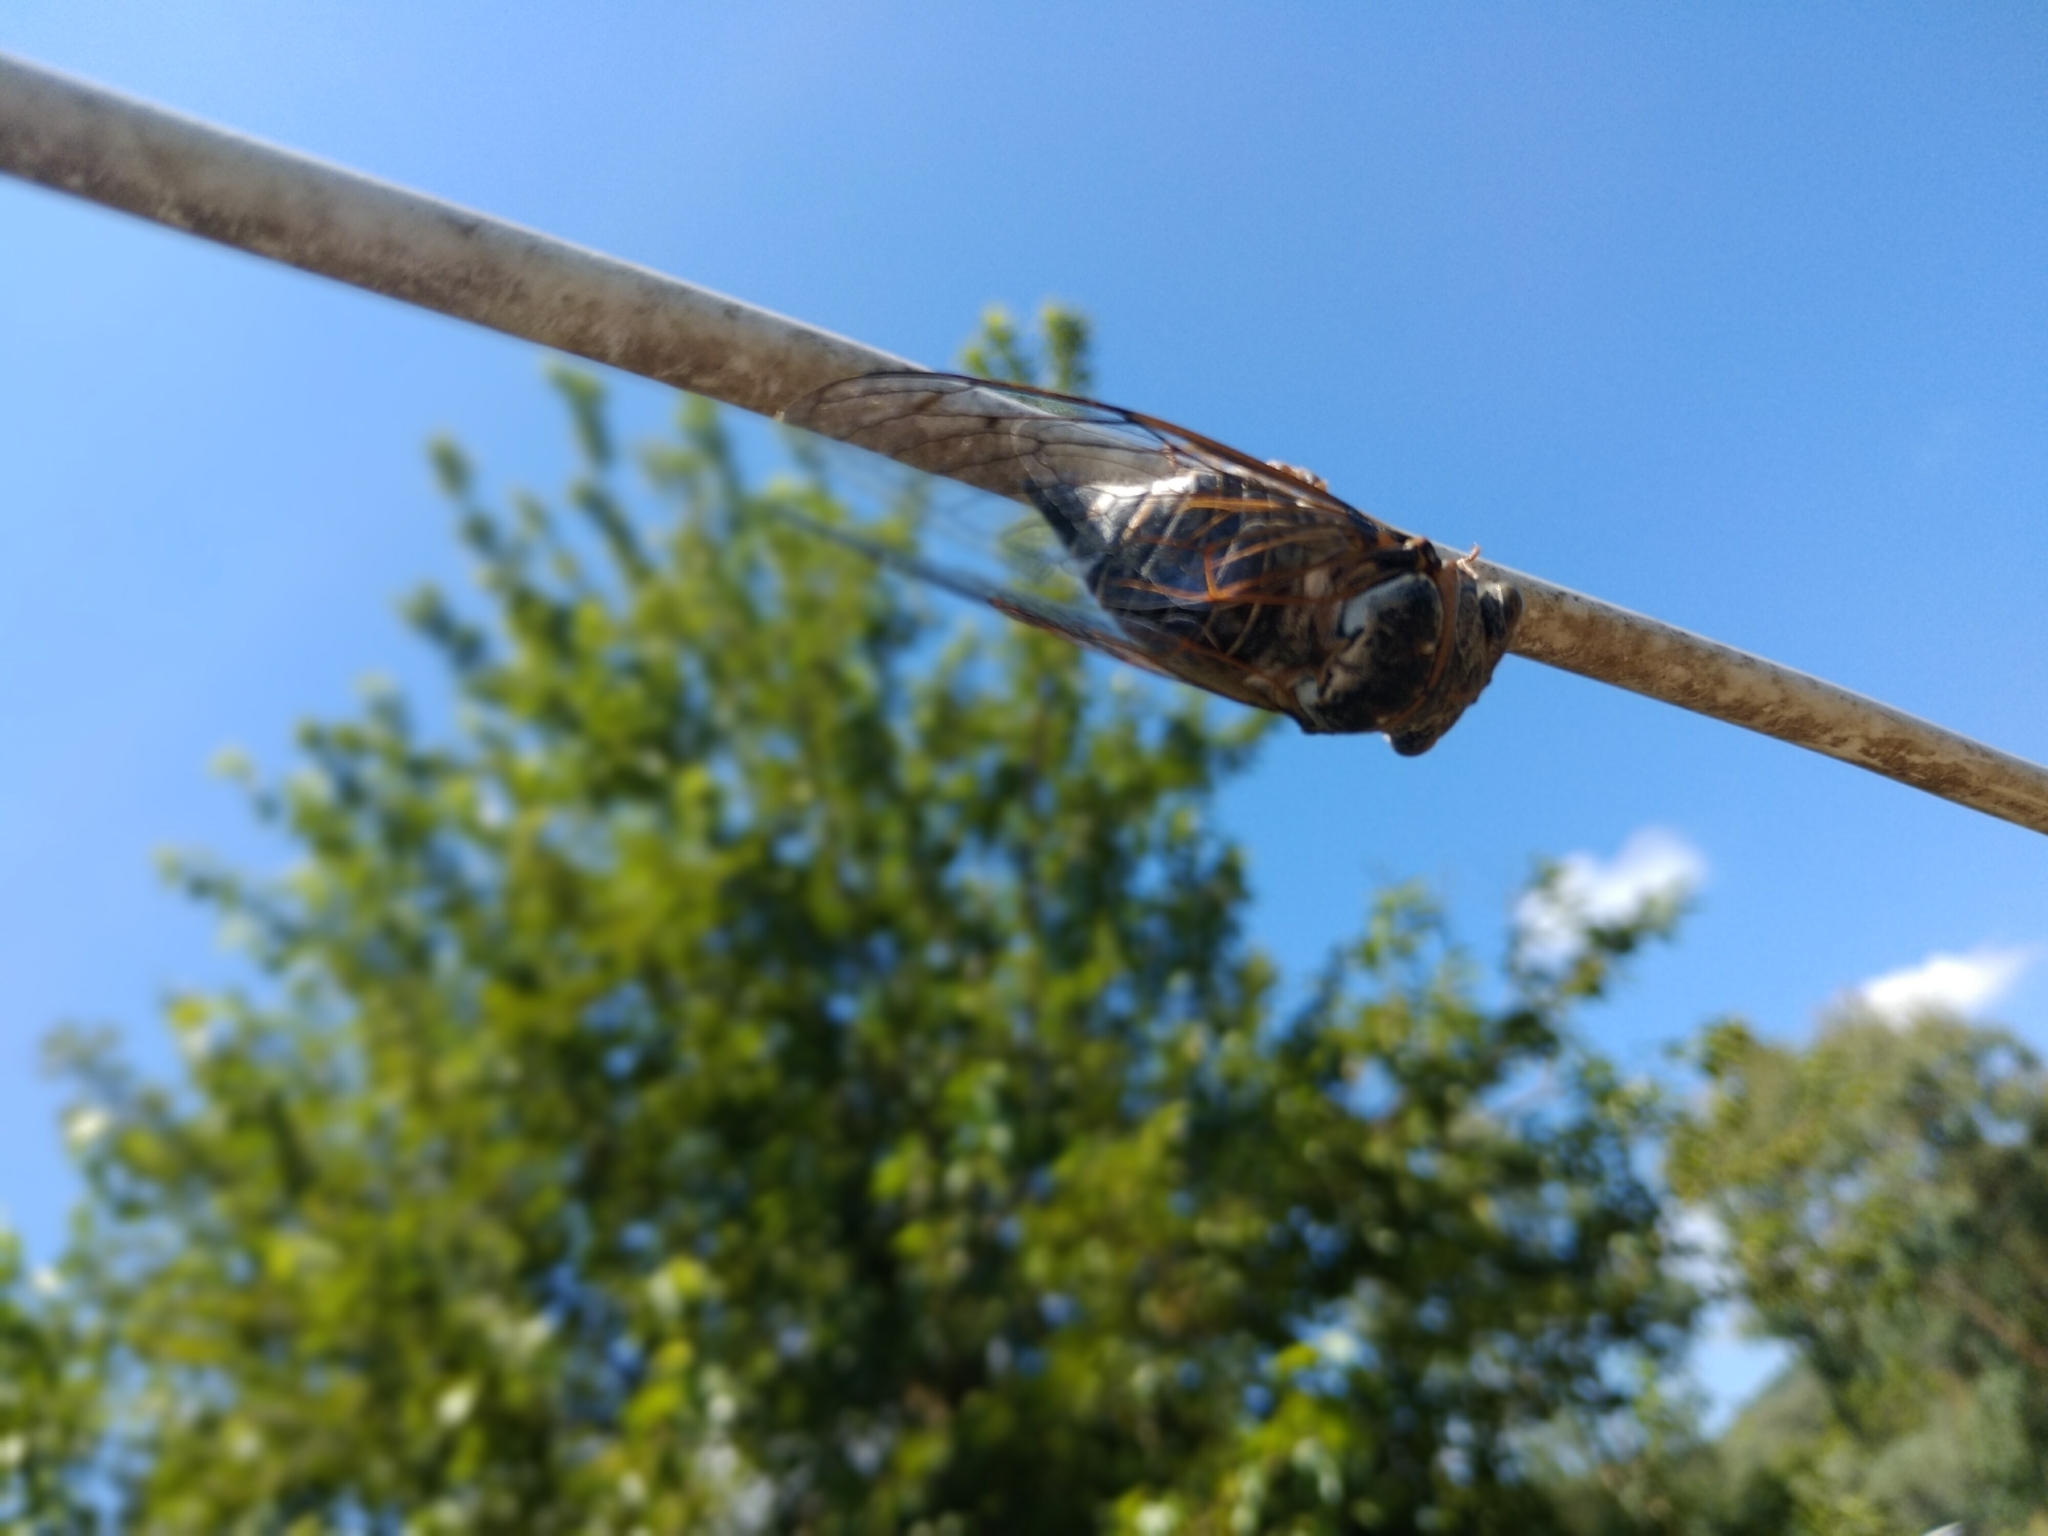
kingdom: Animalia
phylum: Arthropoda
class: Insecta
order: Hemiptera
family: Cicadidae
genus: Lyristes
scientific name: Lyristes plebejus
